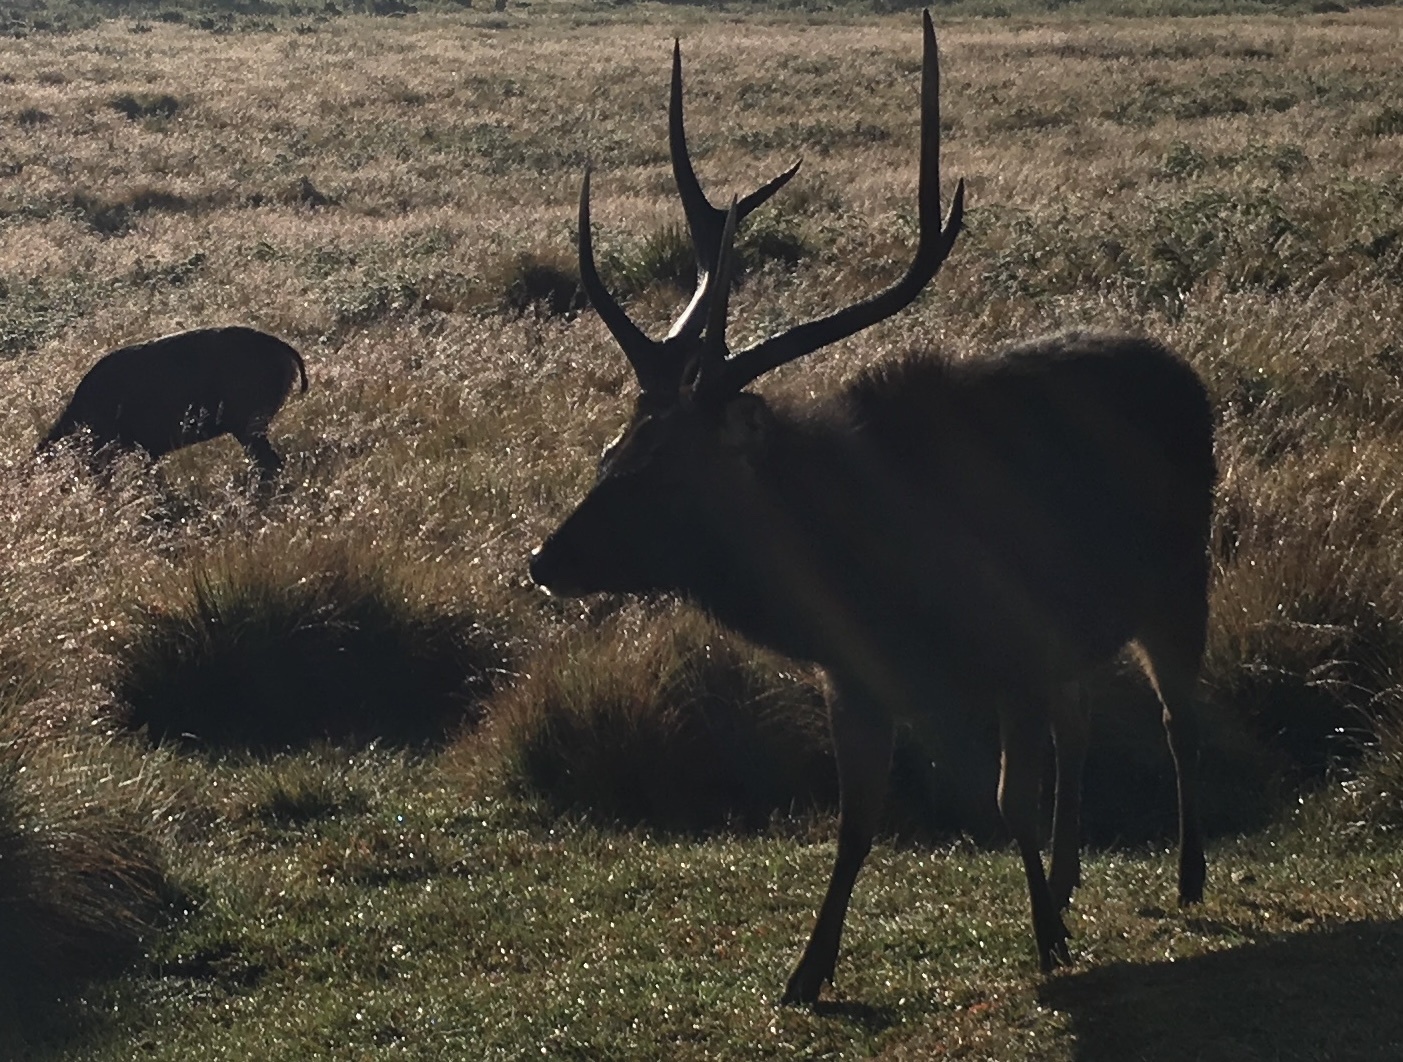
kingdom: Animalia
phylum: Chordata
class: Mammalia
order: Artiodactyla
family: Cervidae
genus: Rusa
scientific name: Rusa unicolor
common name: Sambar
